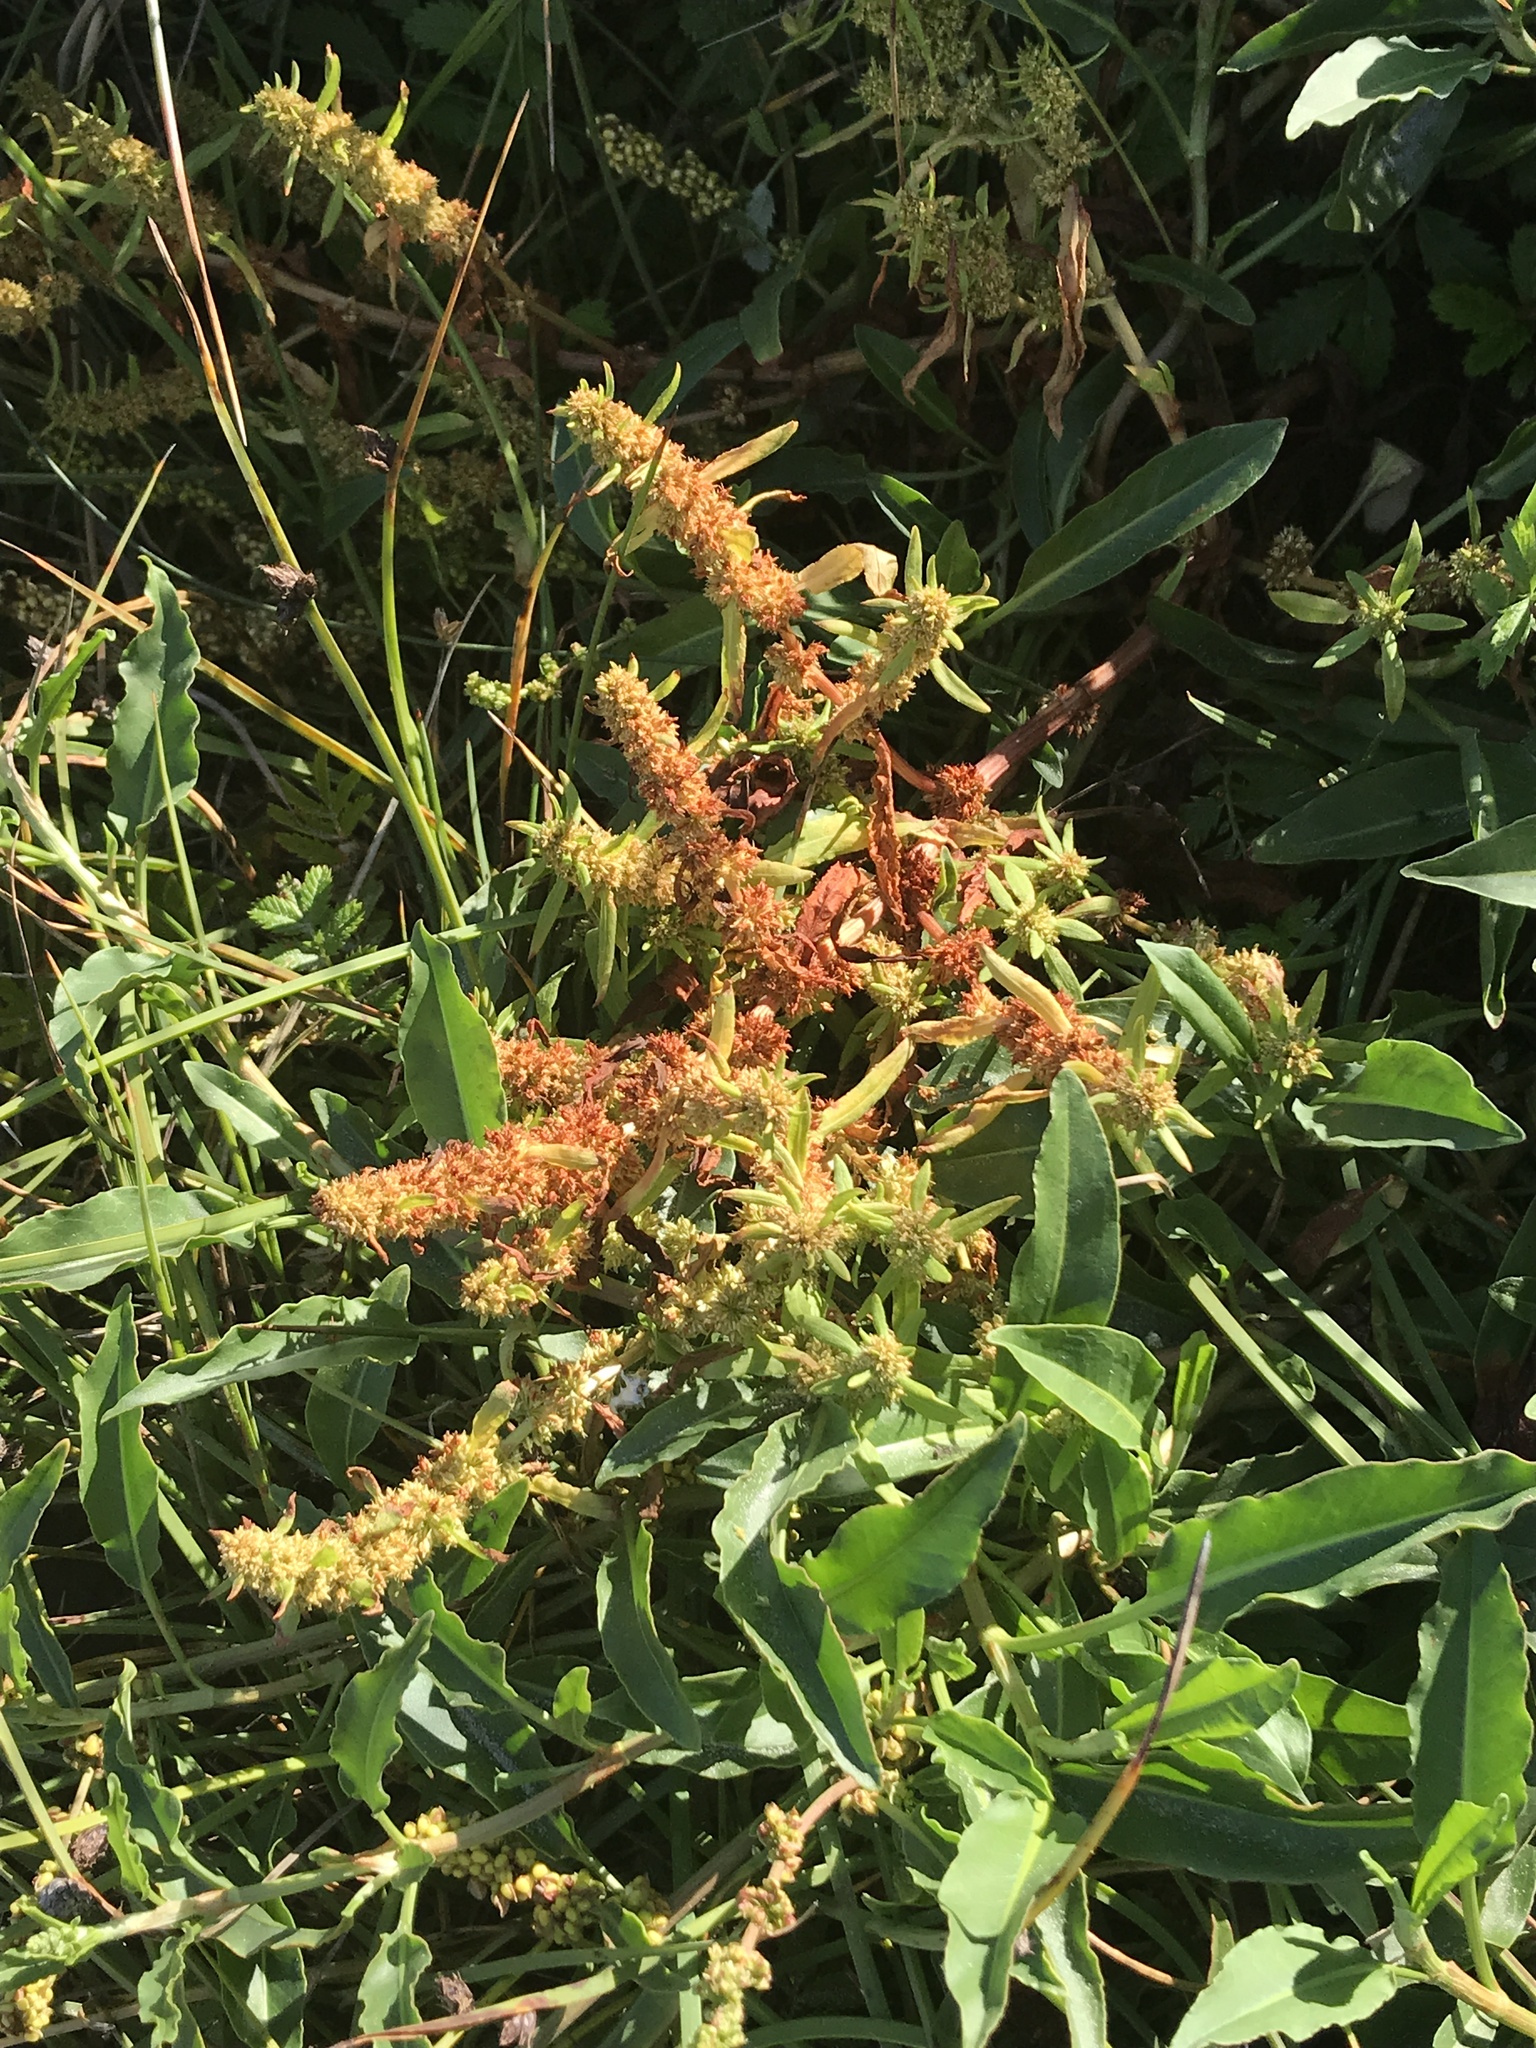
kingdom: Plantae
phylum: Tracheophyta
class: Magnoliopsida
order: Caryophyllales
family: Polygonaceae
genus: Rumex
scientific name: Rumex salicifolius
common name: Willow-leaved dock
